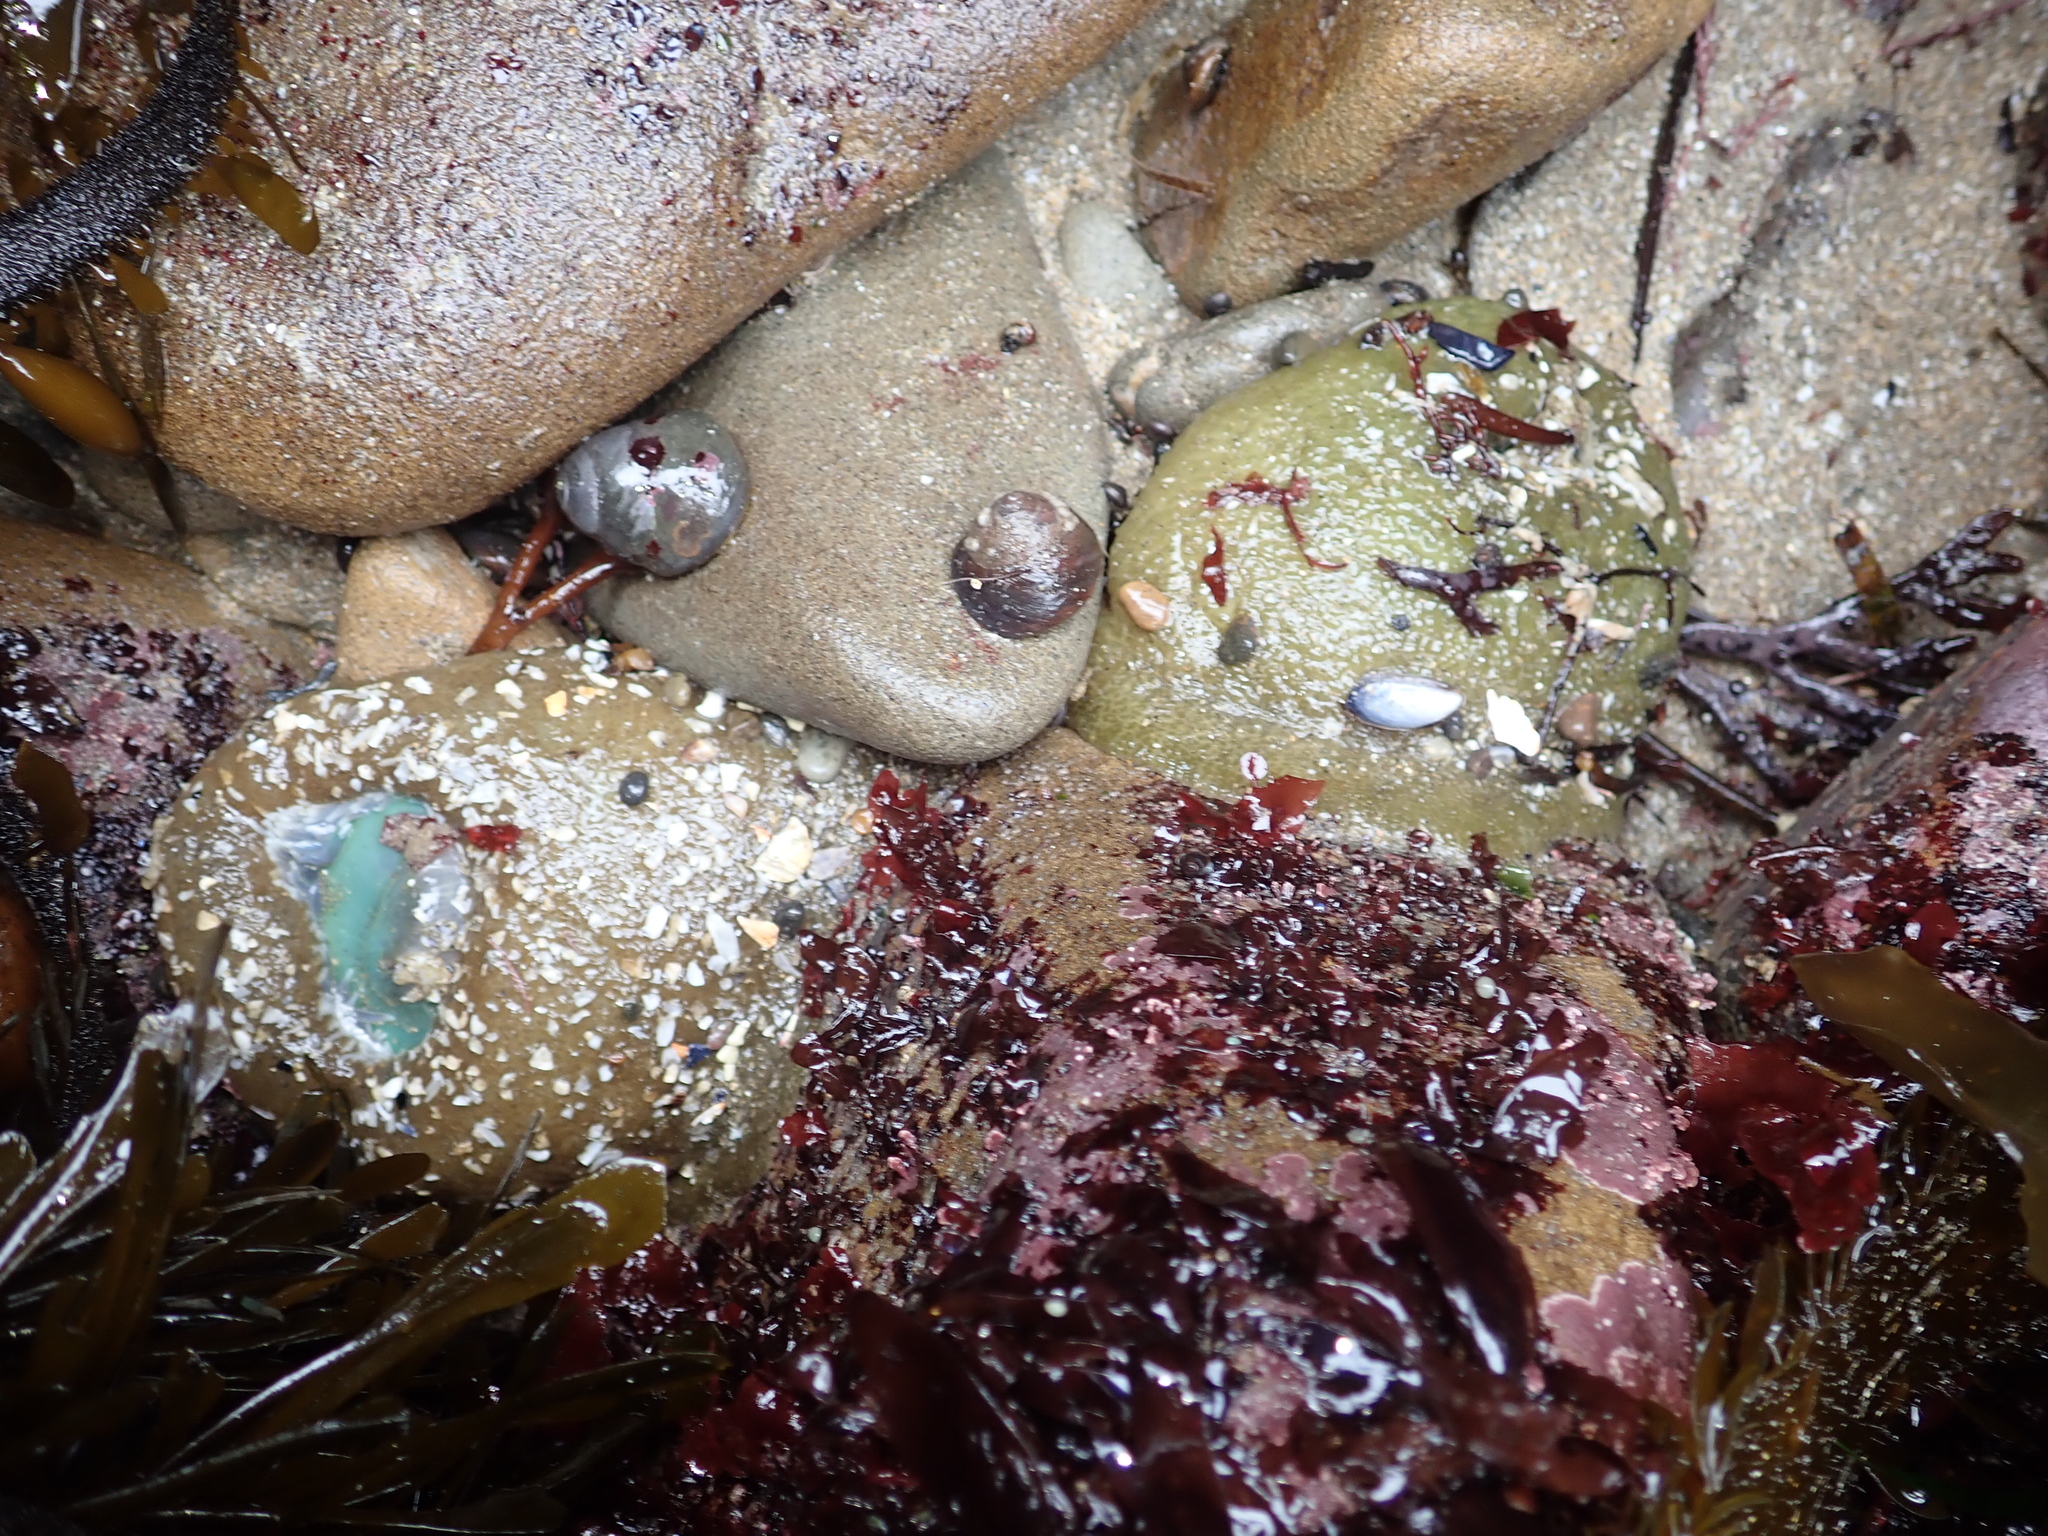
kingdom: Animalia
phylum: Cnidaria
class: Anthozoa
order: Actiniaria
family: Actiniidae
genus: Anthopleura
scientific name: Anthopleura xanthogrammica
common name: Giant green anemone
